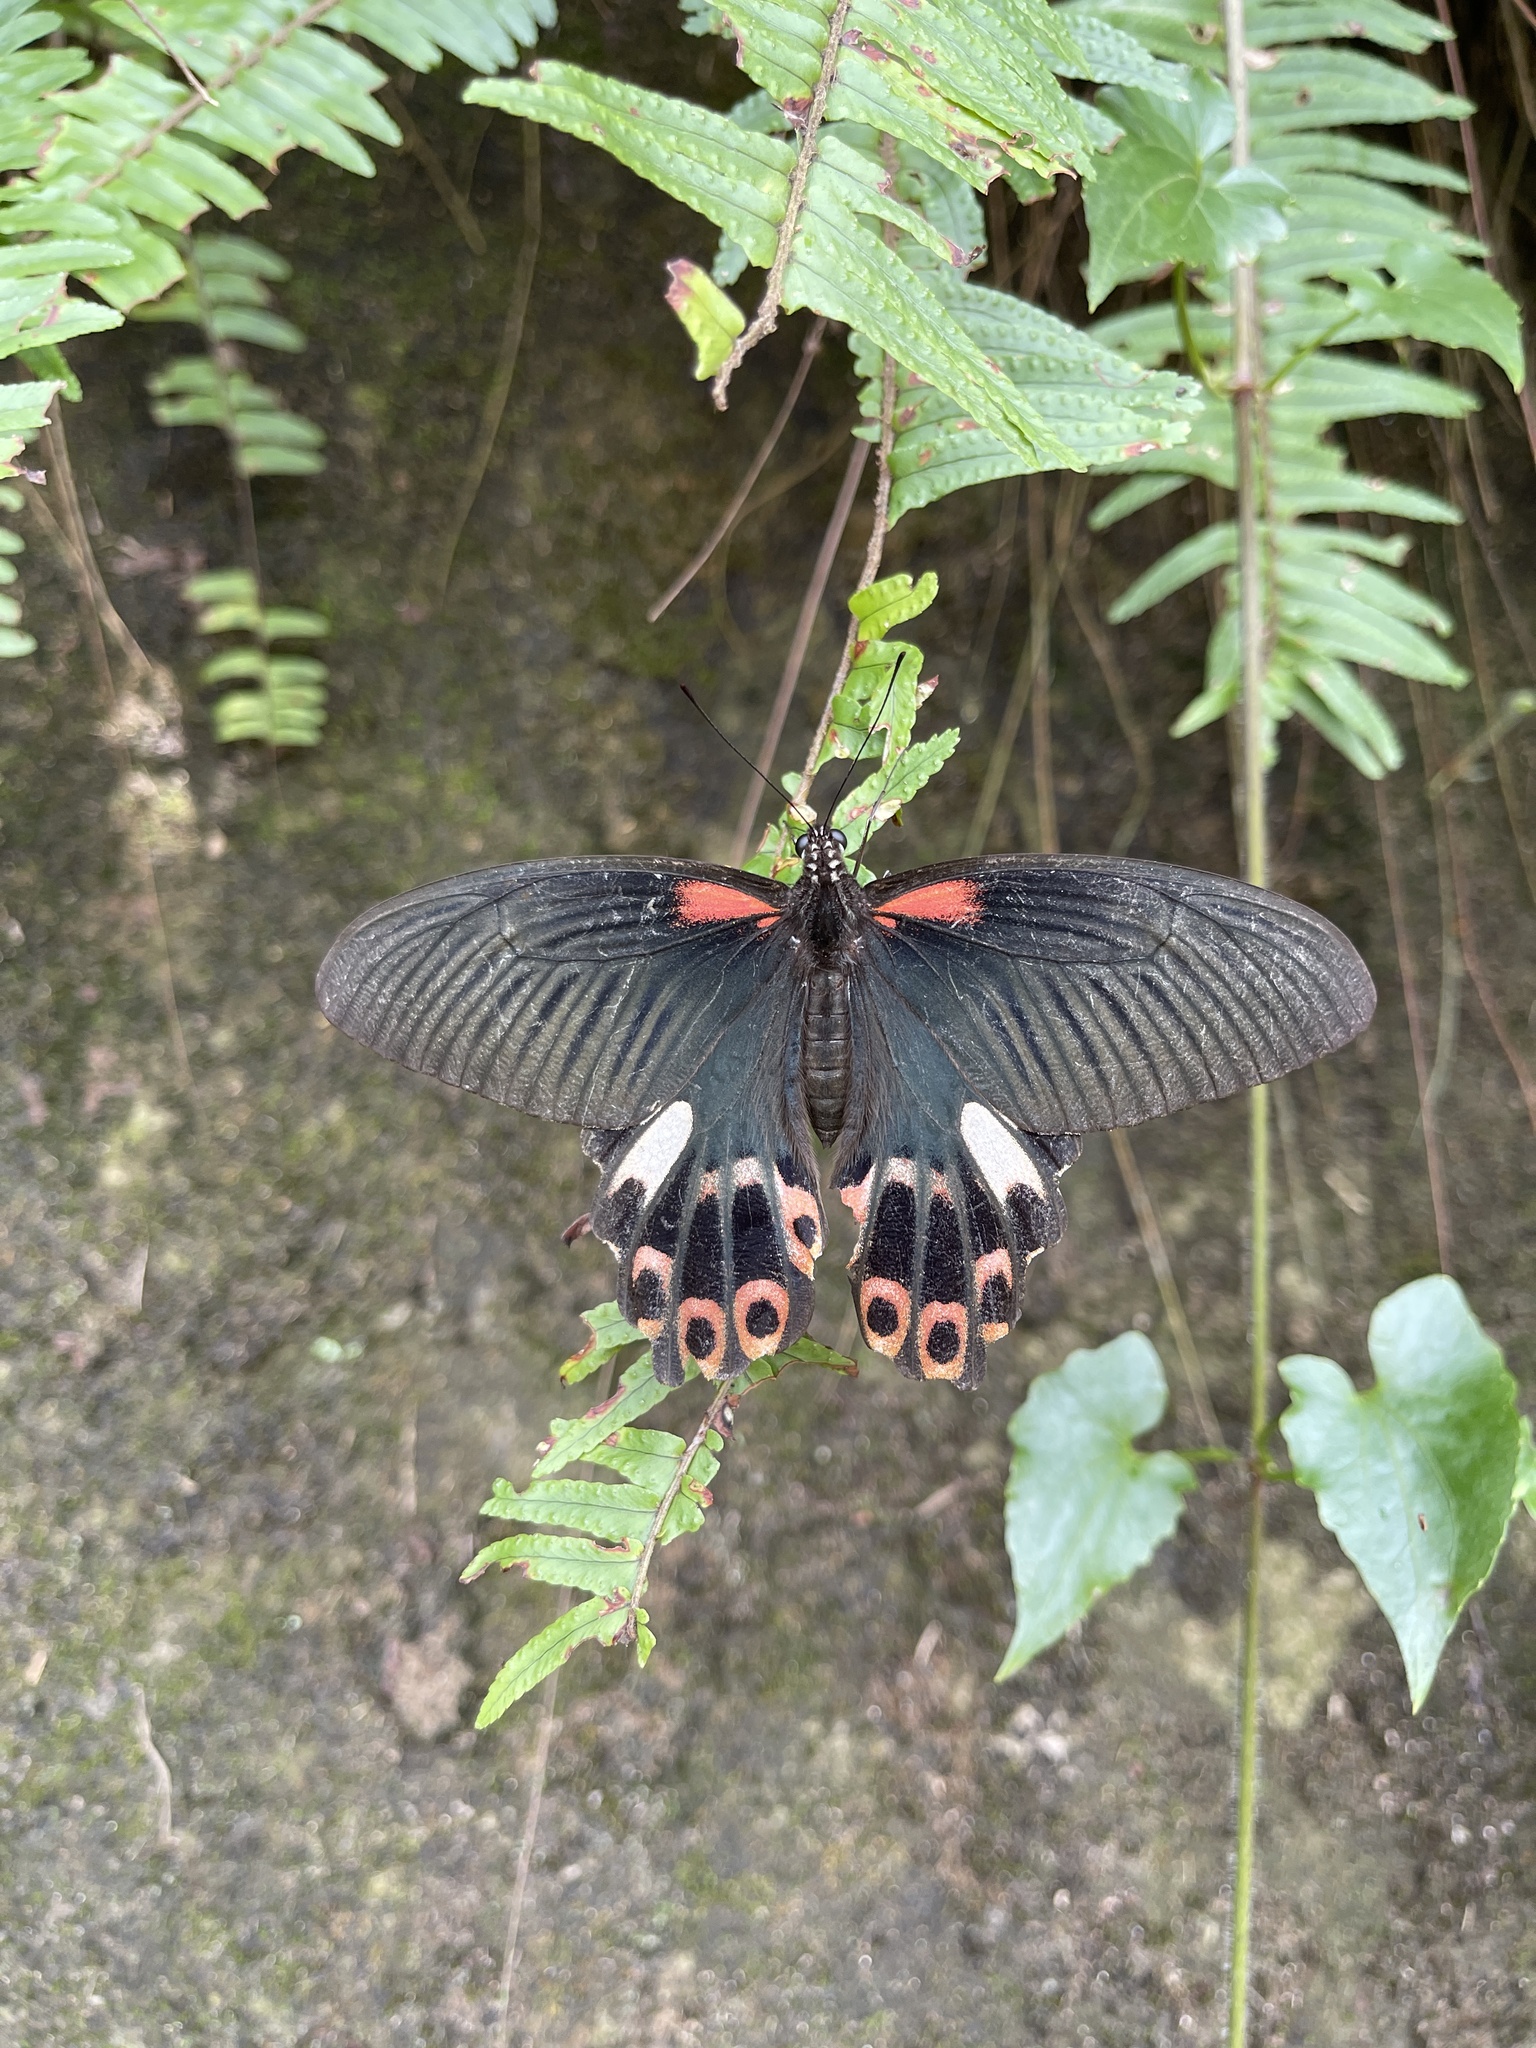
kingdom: Animalia
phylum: Arthropoda
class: Insecta
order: Lepidoptera
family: Papilionidae
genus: Papilio
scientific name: Papilio thaiwanus
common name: Formosan swallowtail
